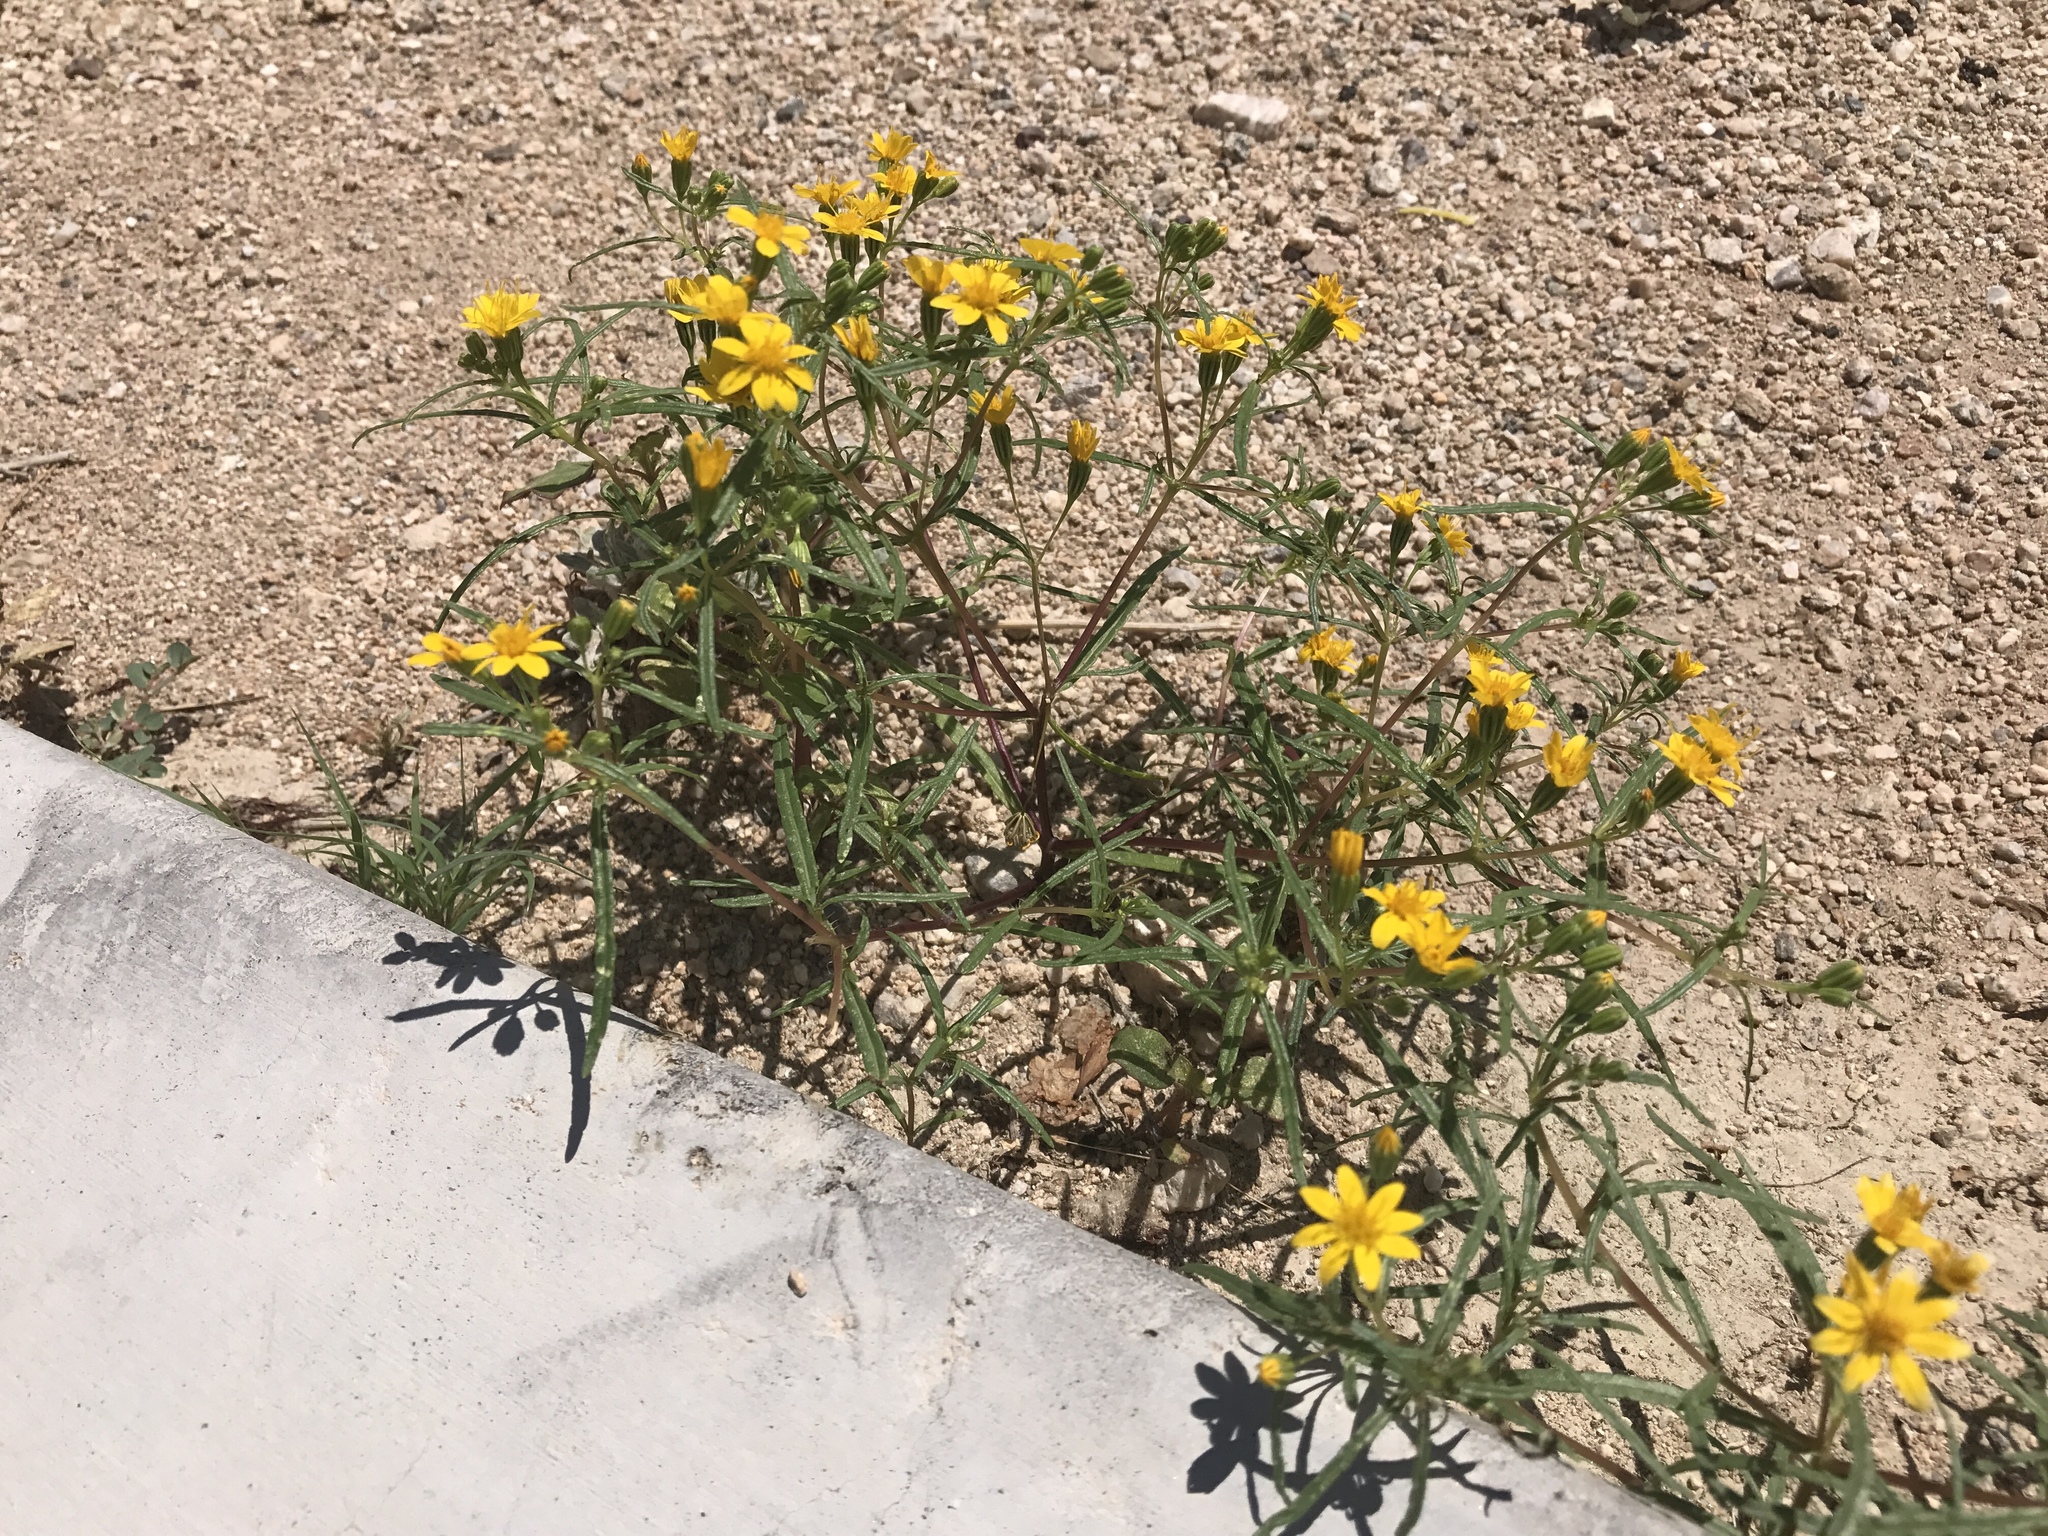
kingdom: Plantae
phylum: Tracheophyta
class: Magnoliopsida
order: Asterales
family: Asteraceae
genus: Pectis
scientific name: Pectis papposa
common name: Many-bristle chinchweed
